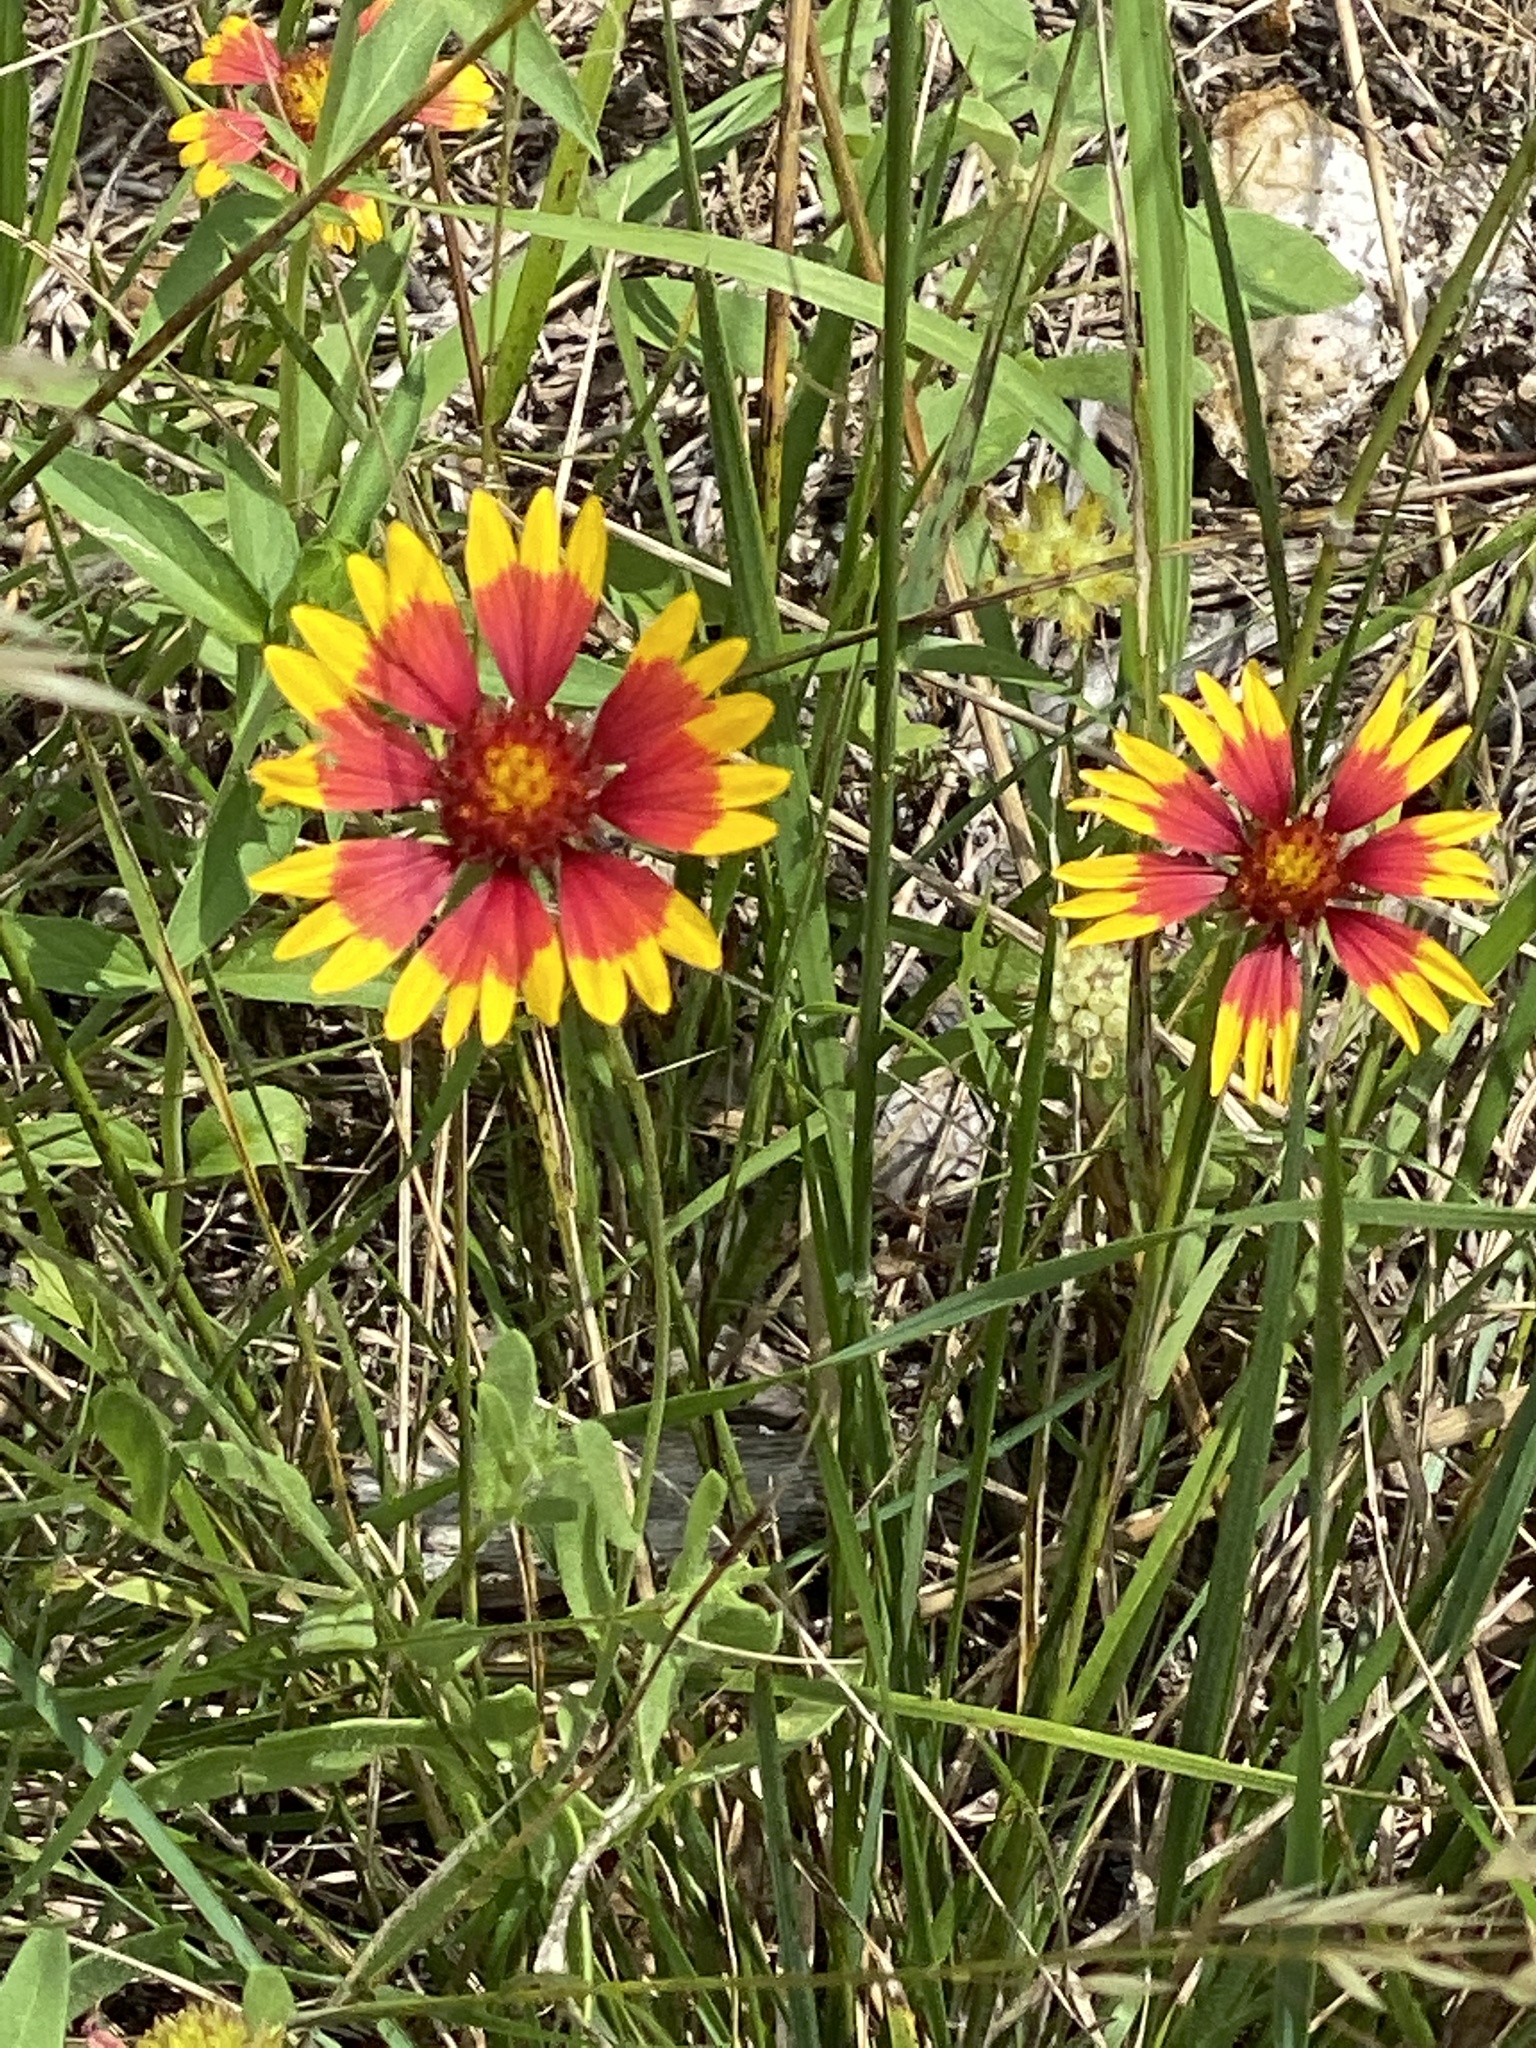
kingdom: Plantae
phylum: Tracheophyta
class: Magnoliopsida
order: Asterales
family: Asteraceae
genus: Gaillardia
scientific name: Gaillardia pulchella
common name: Firewheel
